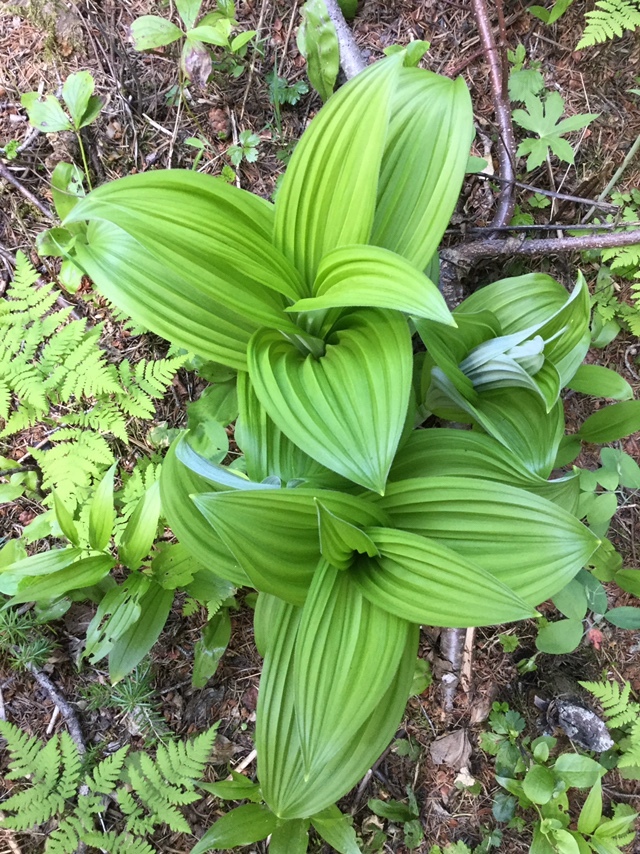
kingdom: Plantae
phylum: Tracheophyta
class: Liliopsida
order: Liliales
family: Melanthiaceae
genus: Veratrum
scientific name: Veratrum viride
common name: American false hellebore
